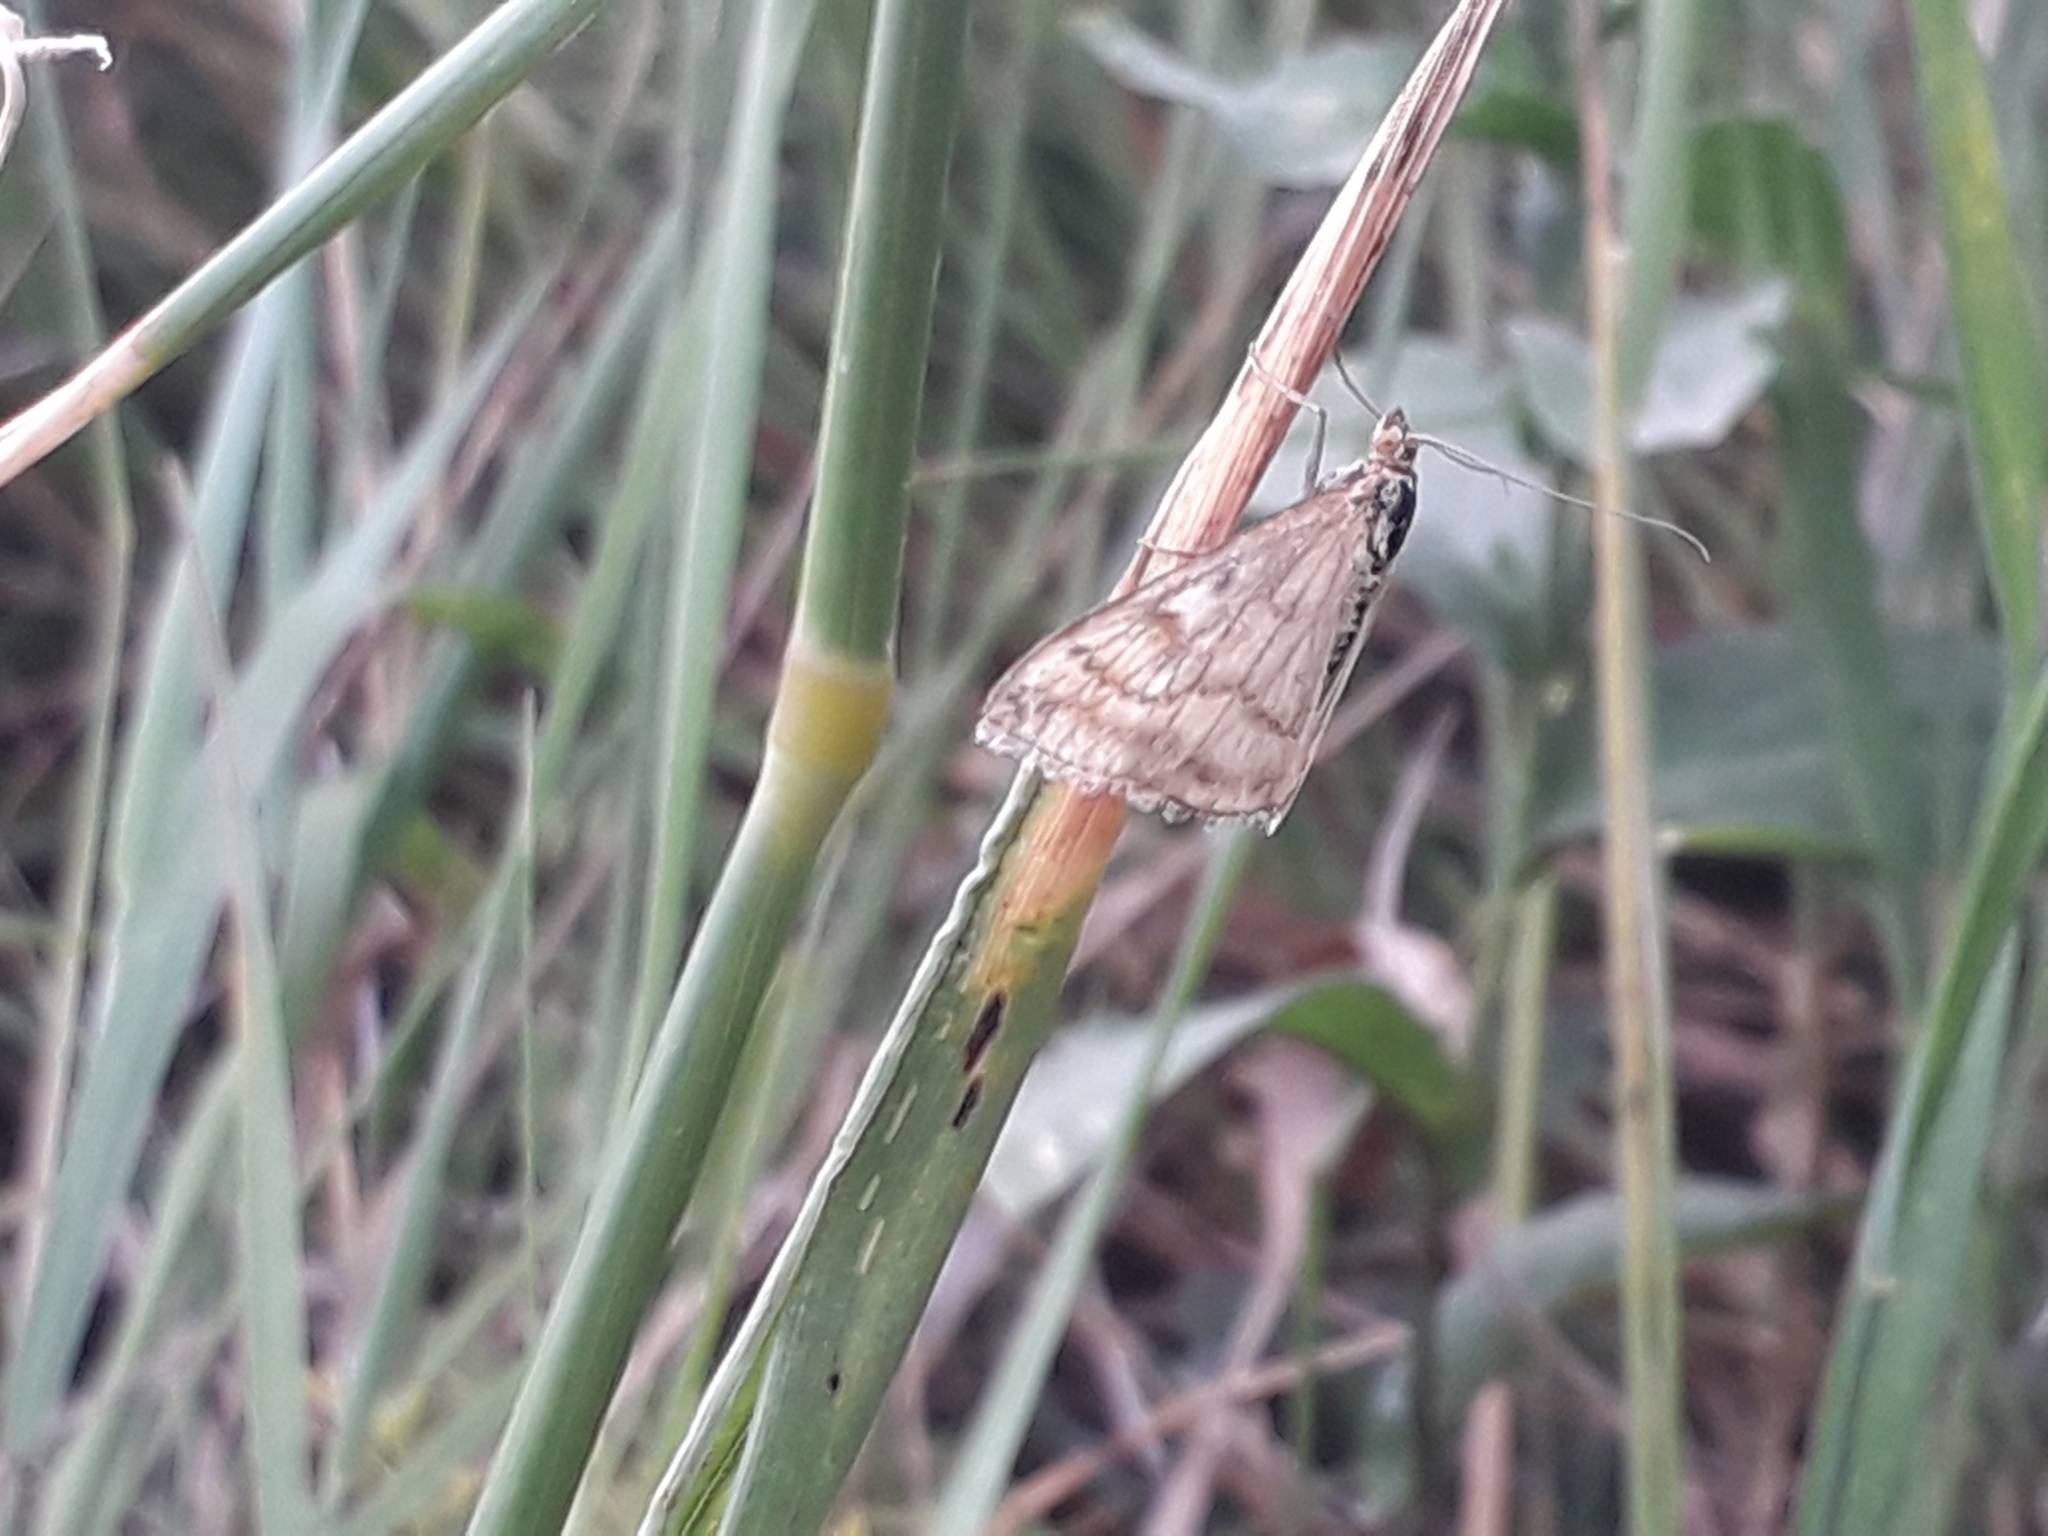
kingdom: Animalia
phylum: Arthropoda
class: Insecta
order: Lepidoptera
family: Crambidae
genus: Sitochroa
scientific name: Sitochroa verticalis
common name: Lesser pearl
